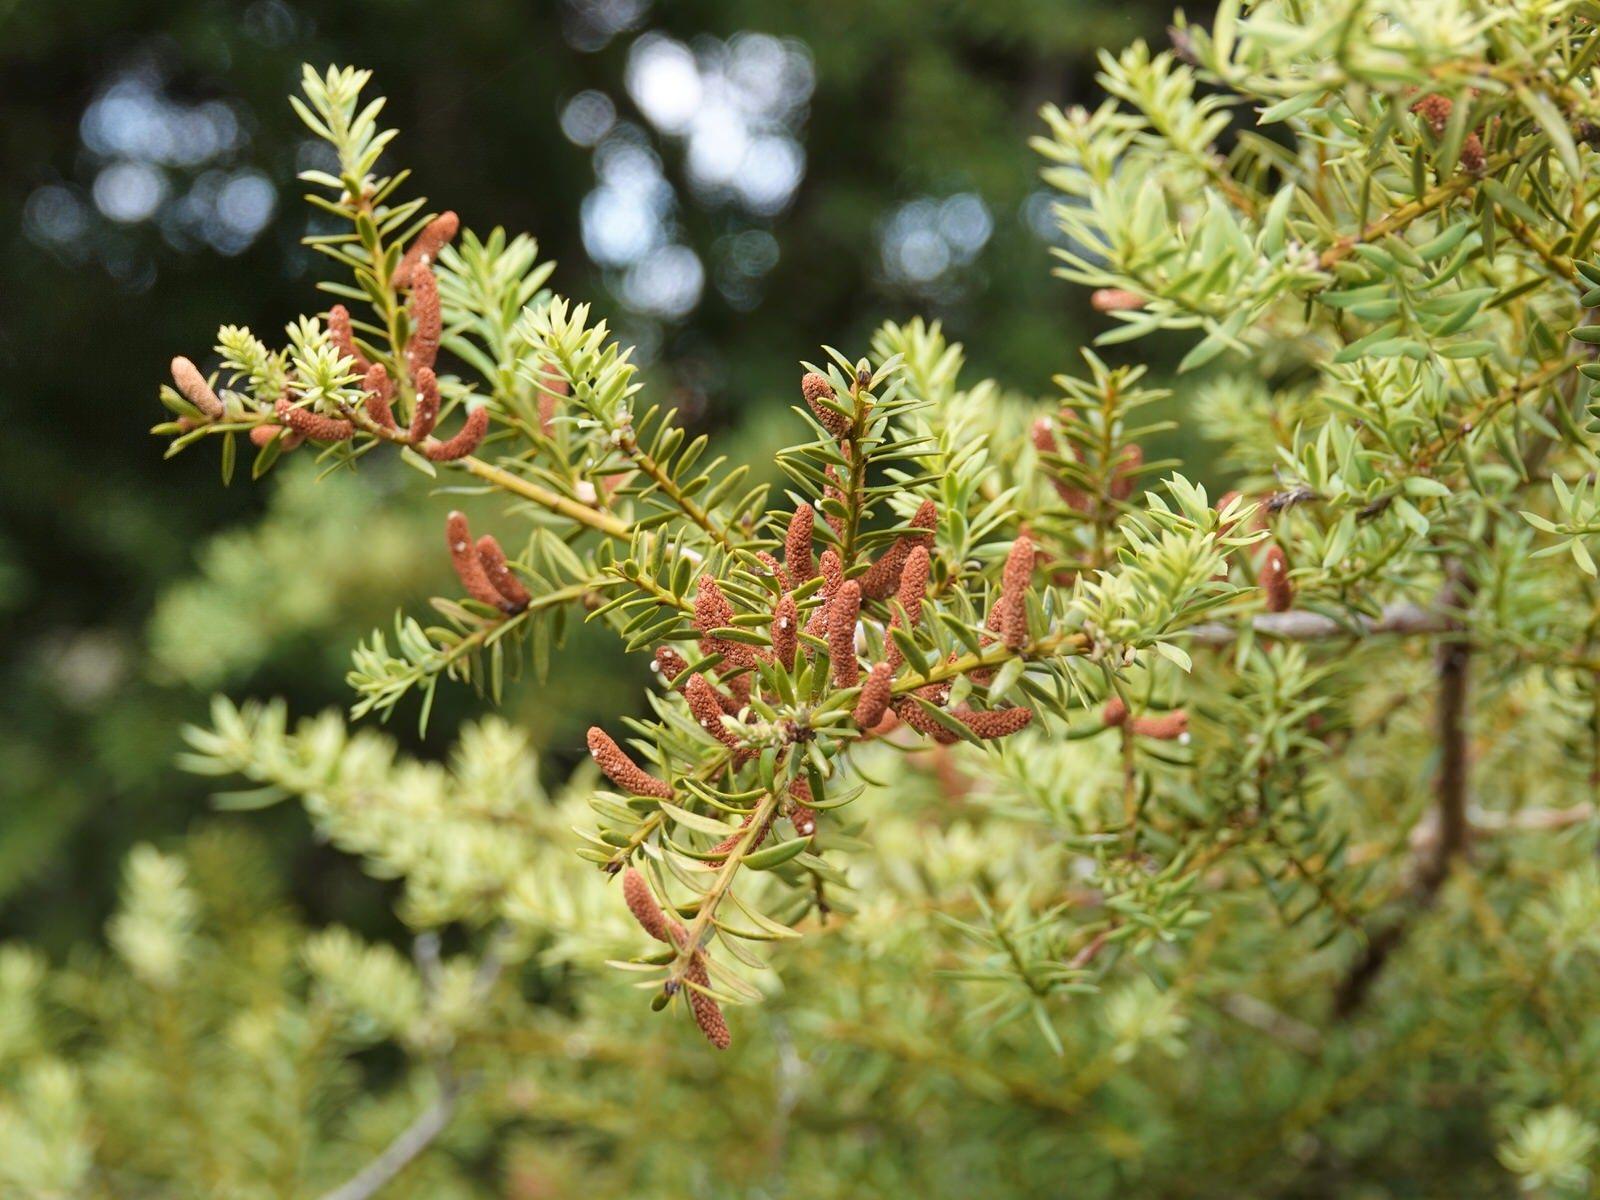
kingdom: Plantae
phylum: Tracheophyta
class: Pinopsida
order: Pinales
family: Podocarpaceae
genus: Podocarpus
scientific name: Podocarpus totara
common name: Totara
